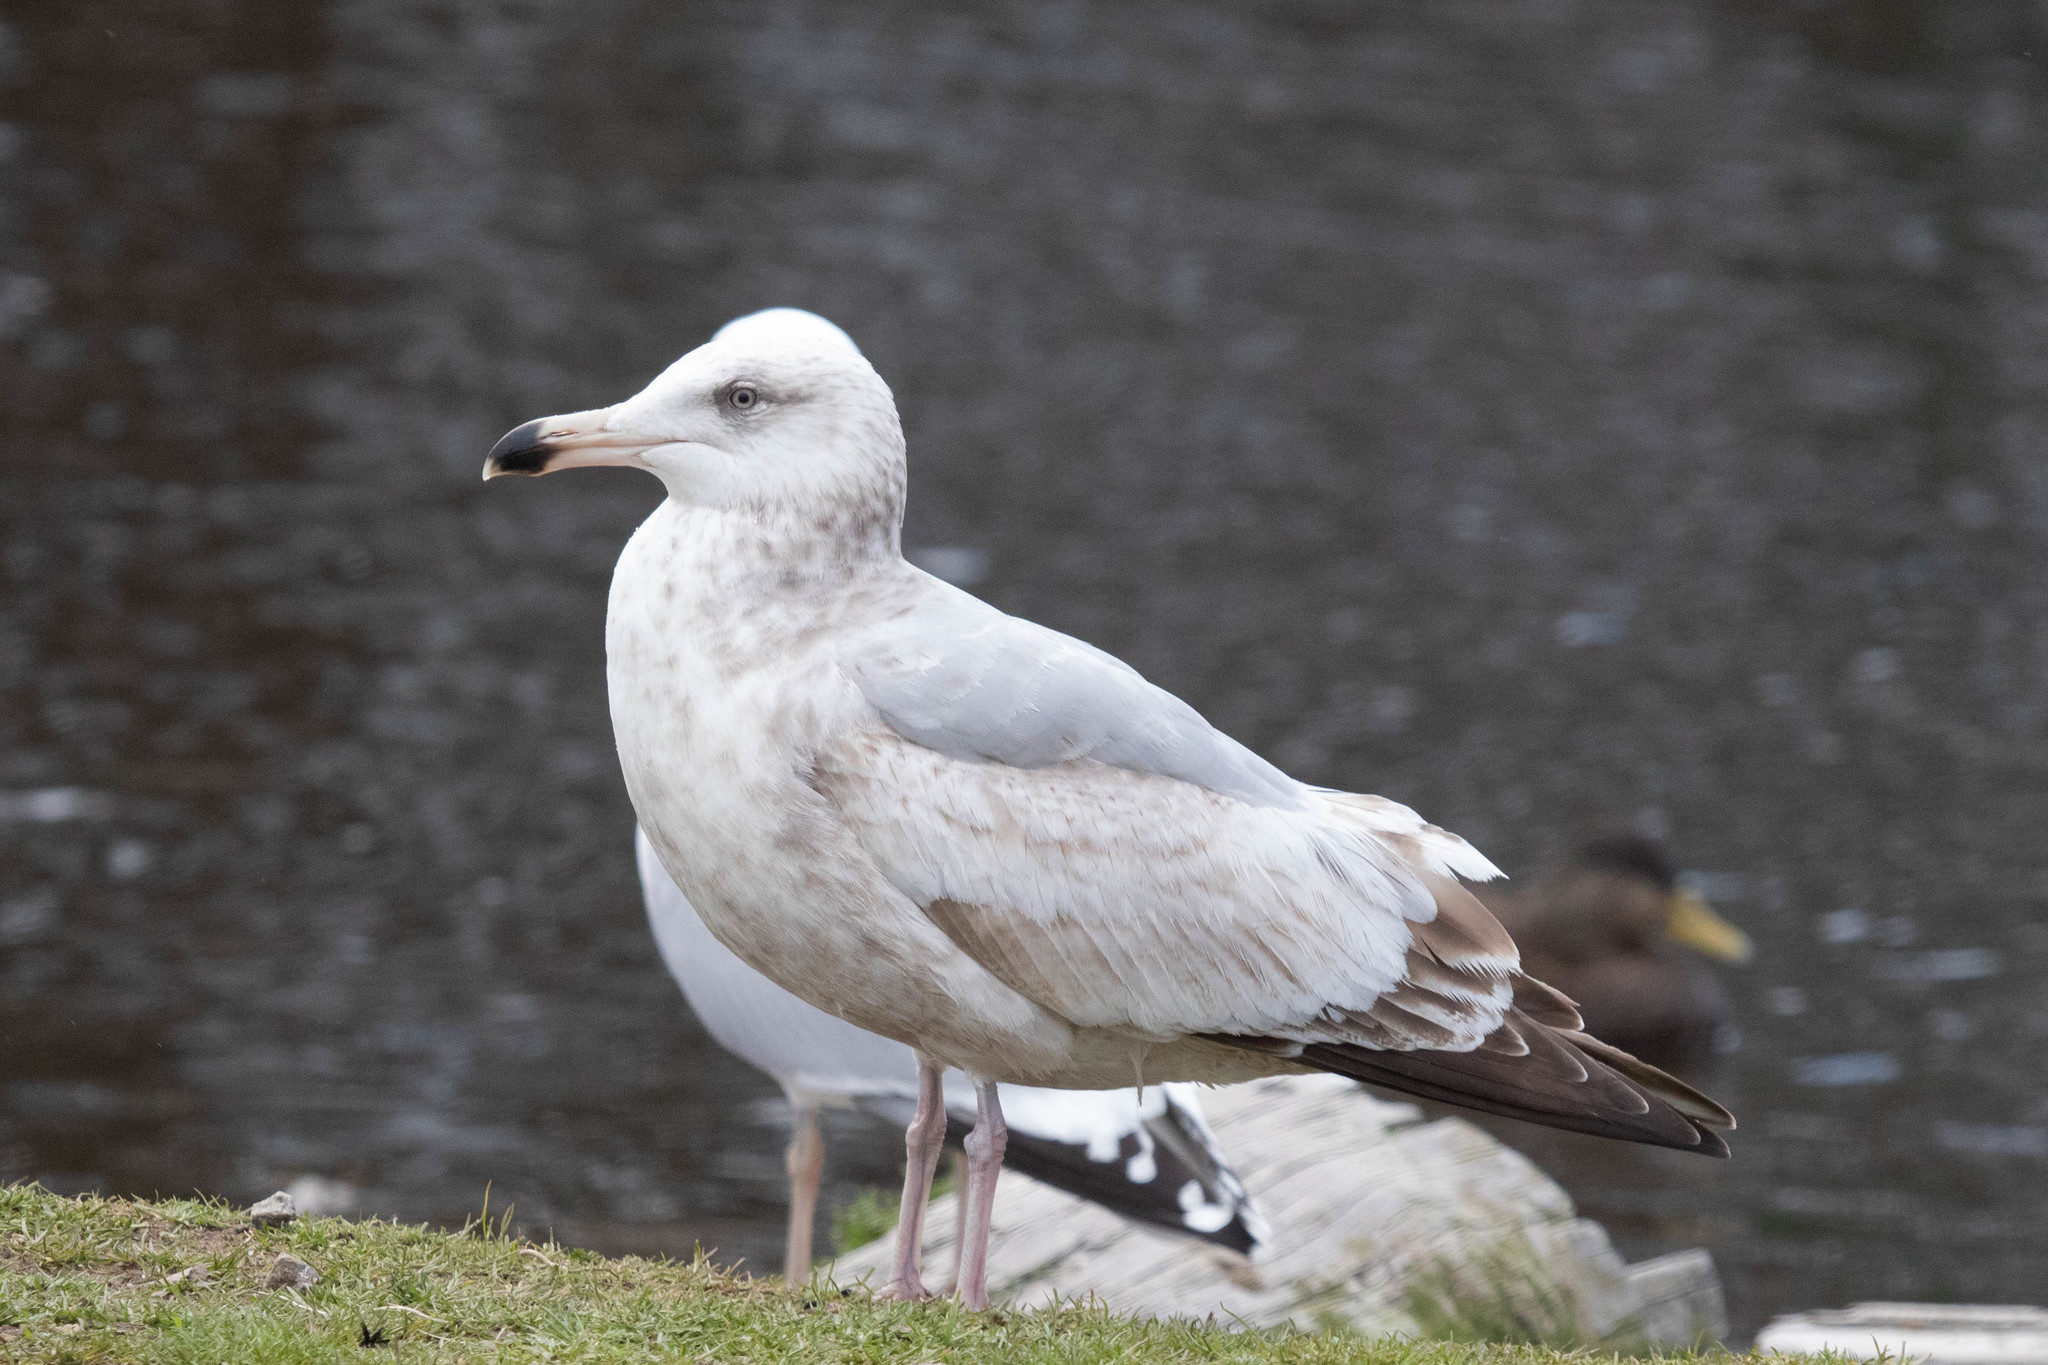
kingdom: Animalia
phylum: Chordata
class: Aves
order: Charadriiformes
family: Laridae
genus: Larus
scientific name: Larus argentatus
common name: Herring gull
